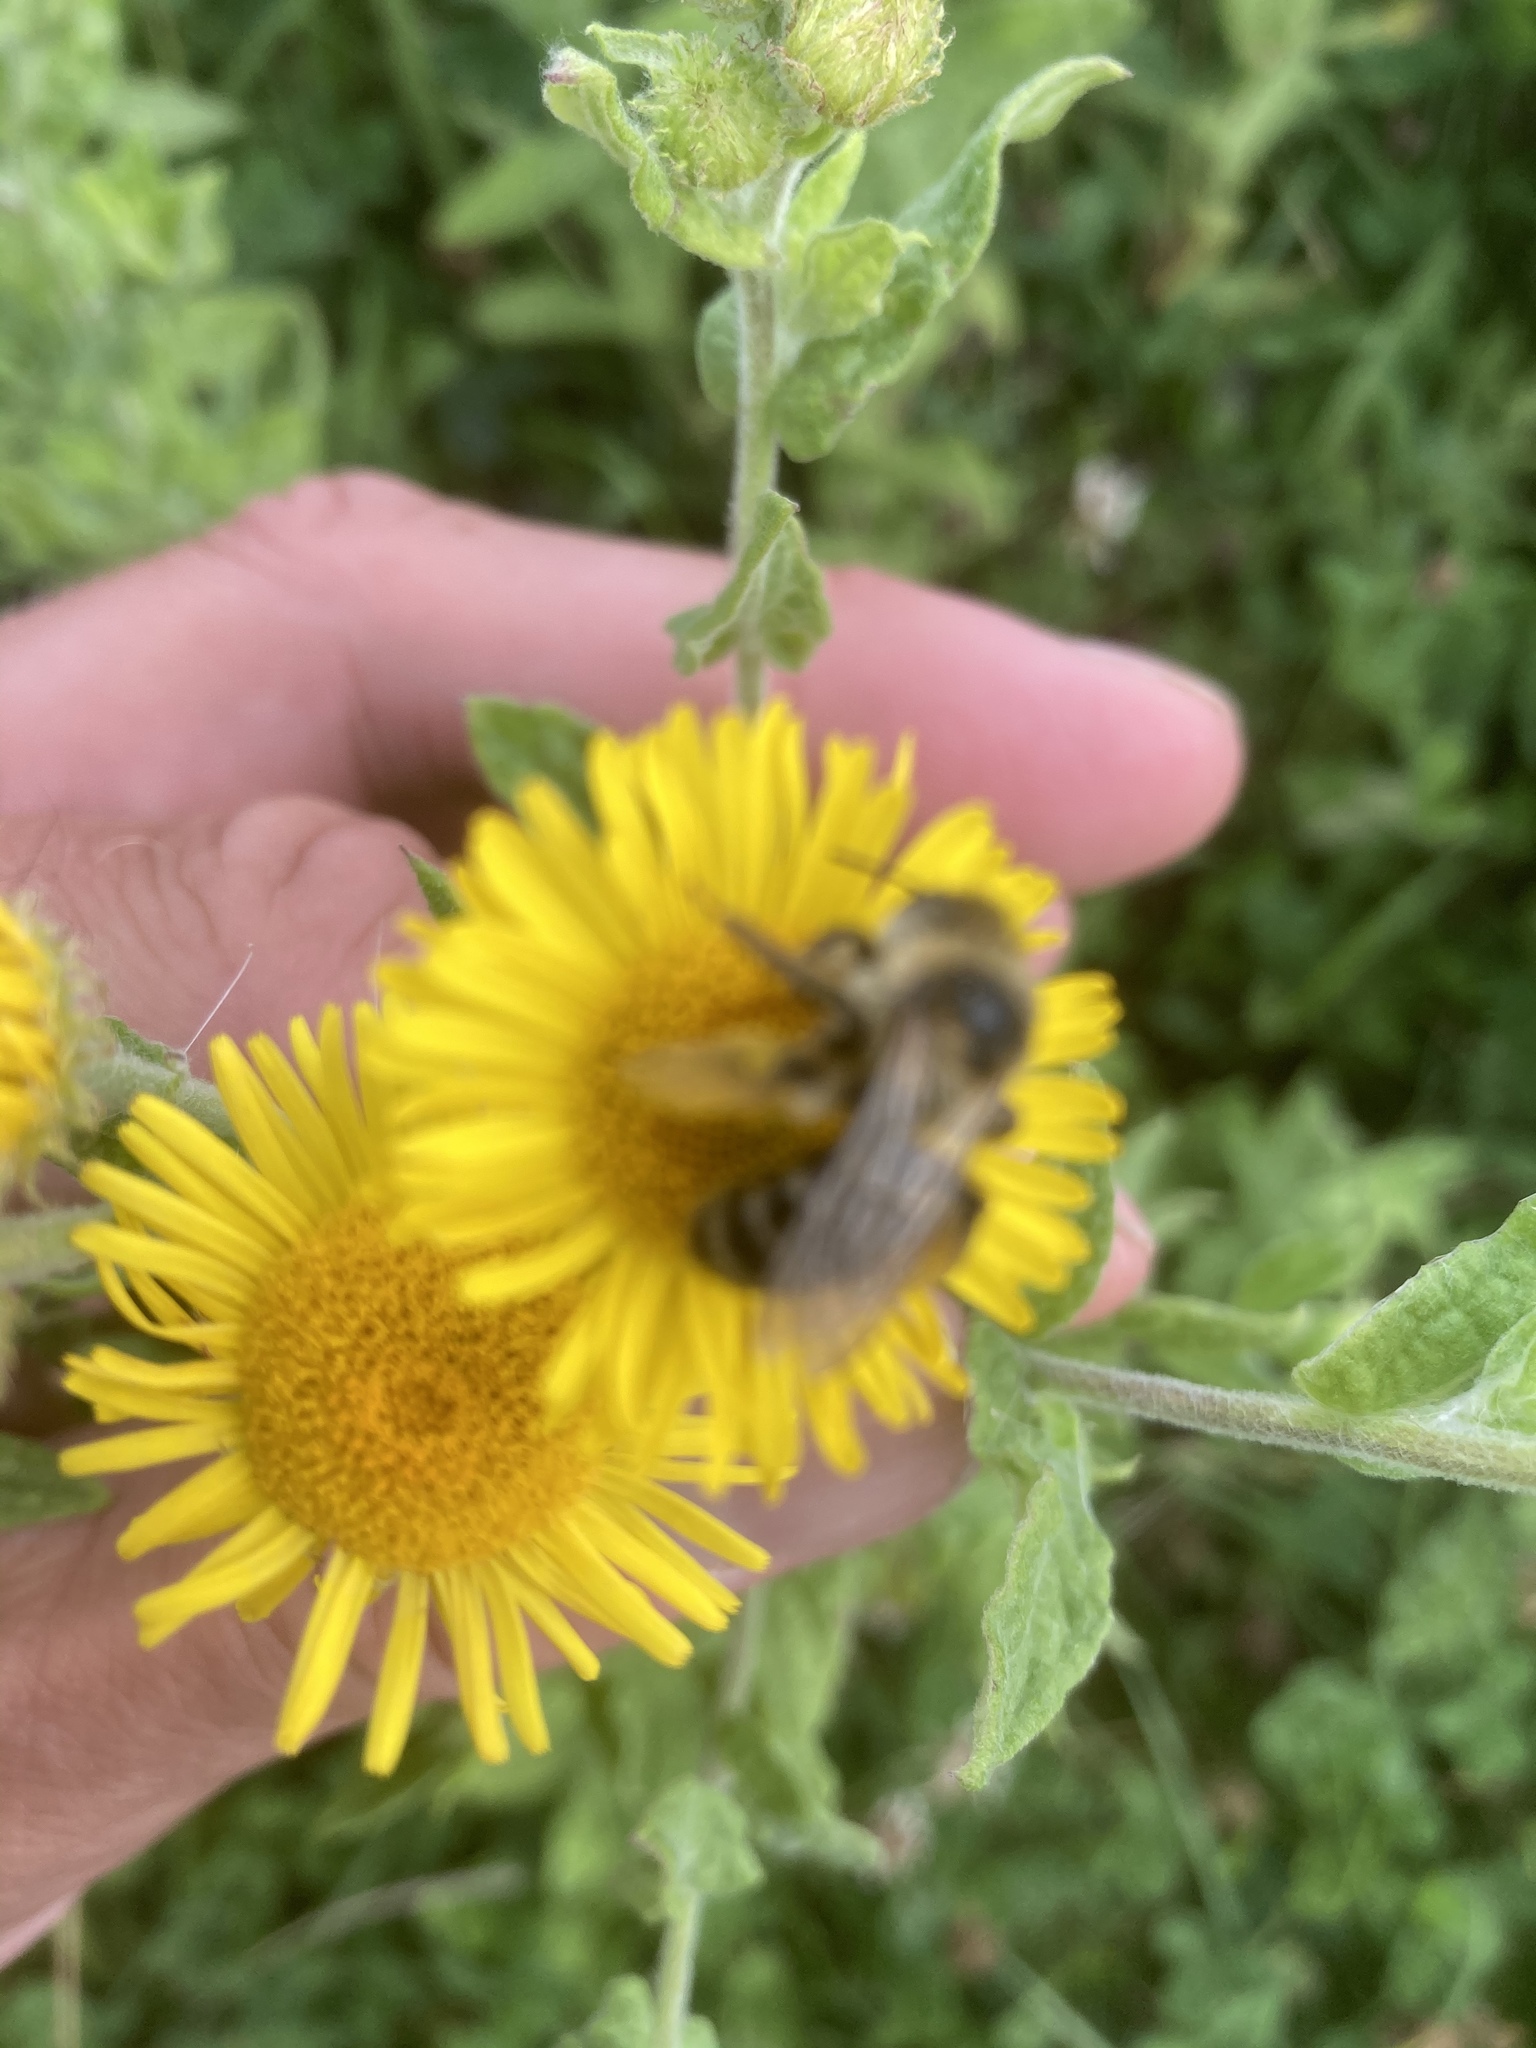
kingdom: Animalia
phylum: Arthropoda
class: Insecta
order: Hymenoptera
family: Melittidae
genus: Dasypoda
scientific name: Dasypoda hirtipes
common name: Pantaloon bee
